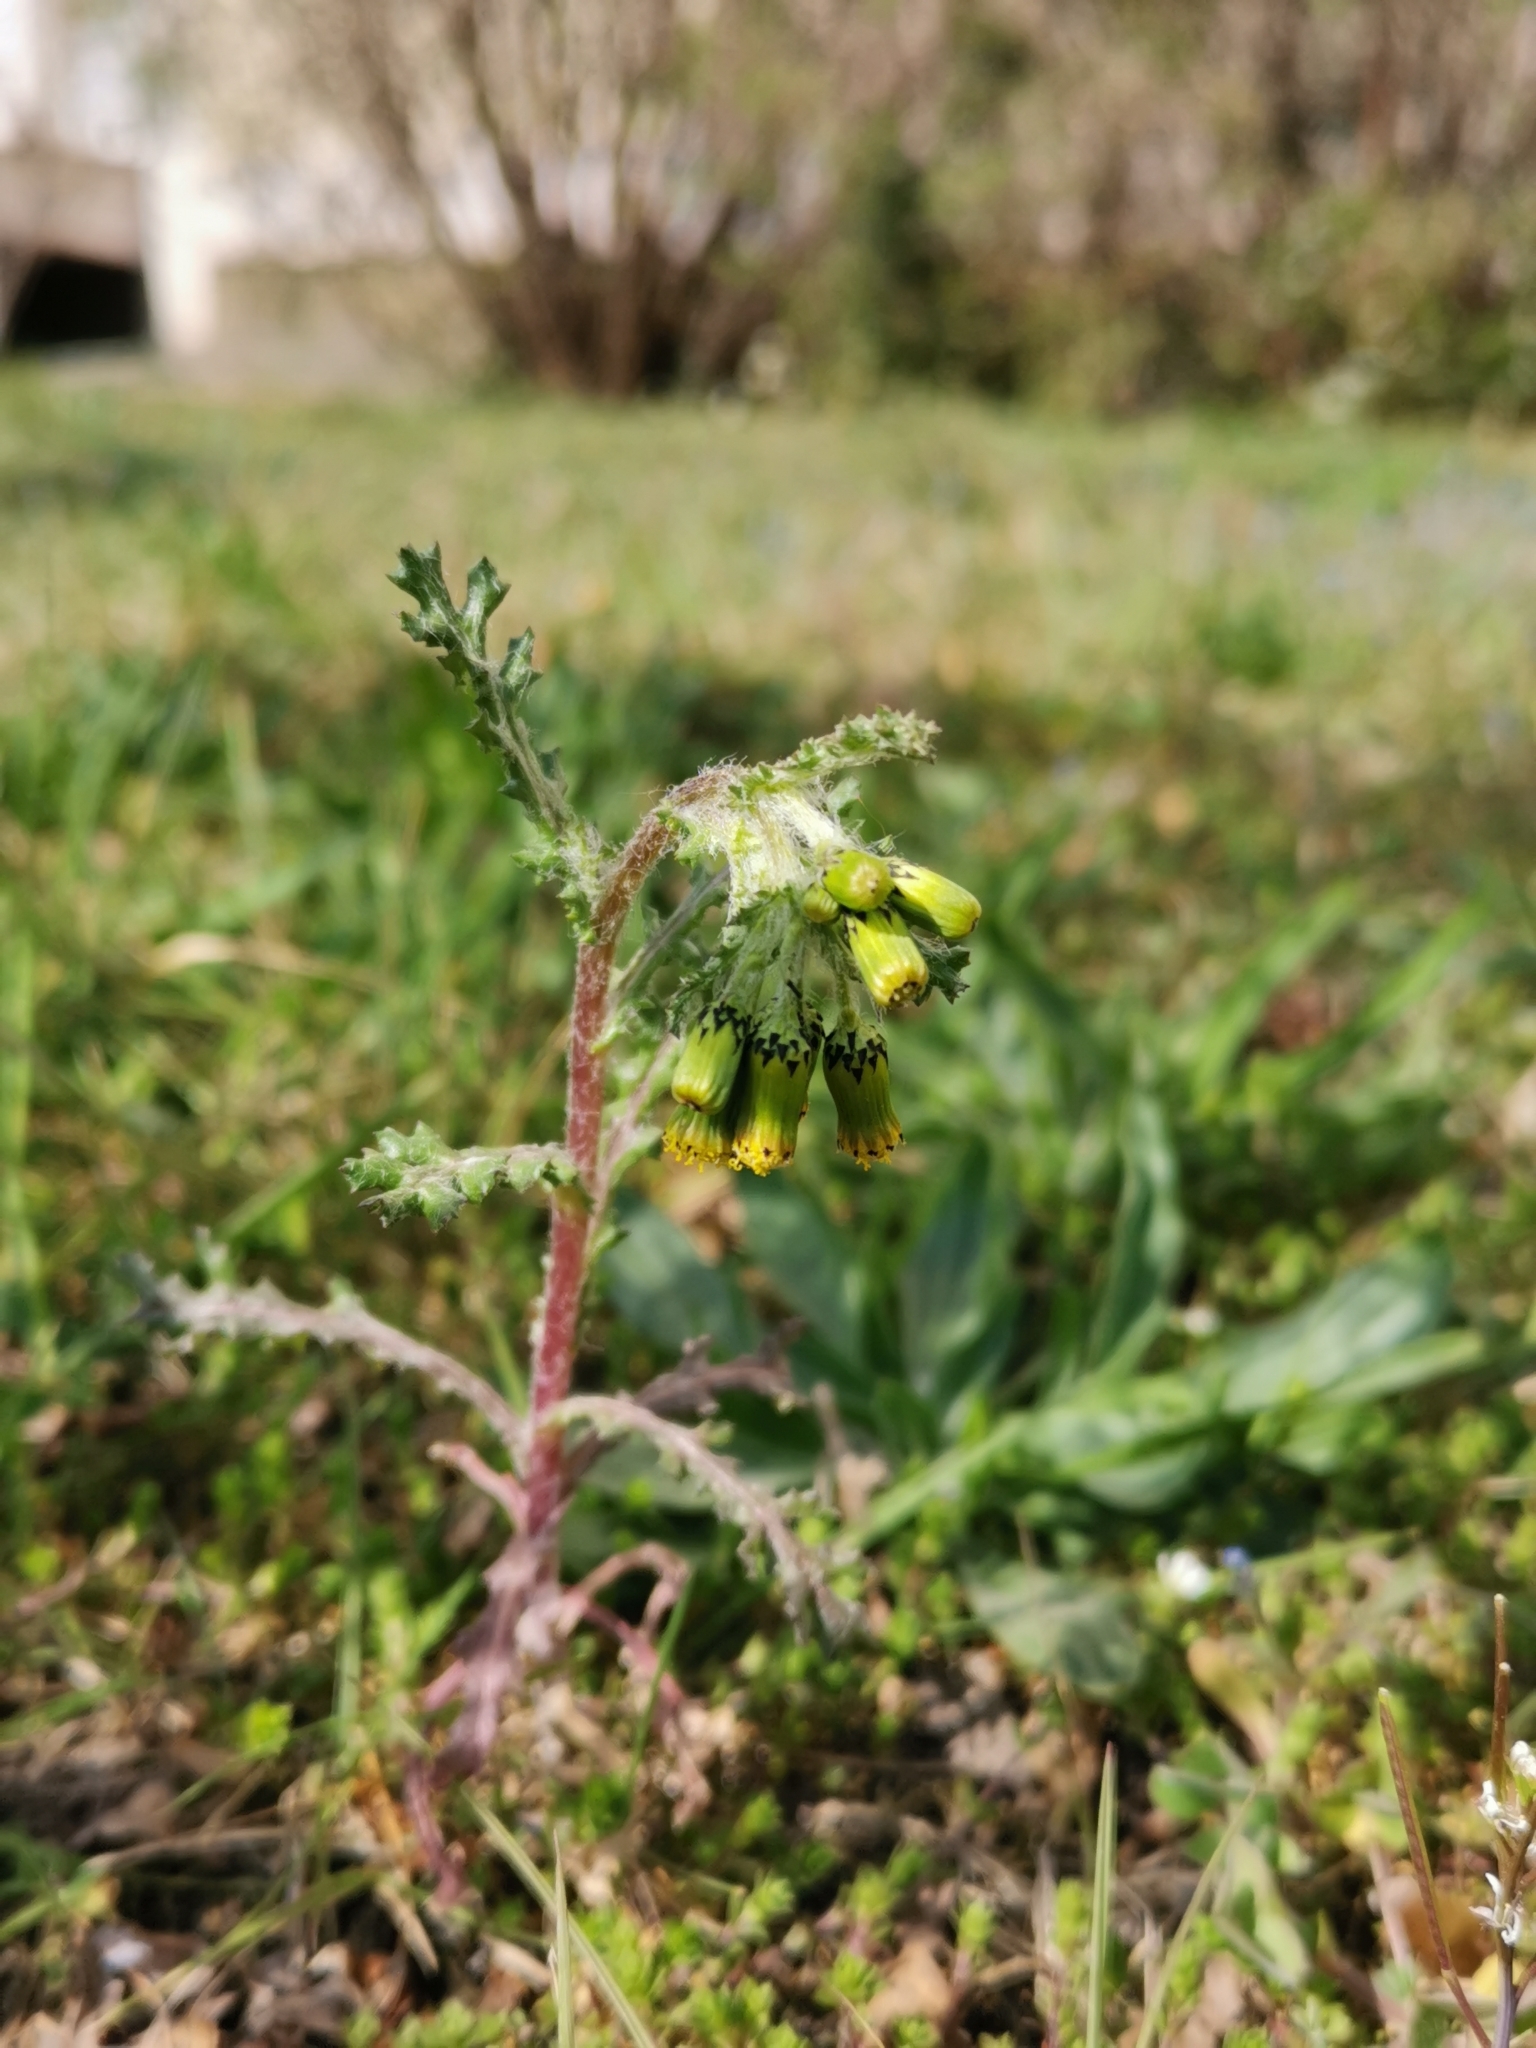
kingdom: Plantae
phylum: Tracheophyta
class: Magnoliopsida
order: Asterales
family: Asteraceae
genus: Senecio
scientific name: Senecio vulgaris
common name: Old-man-in-the-spring
